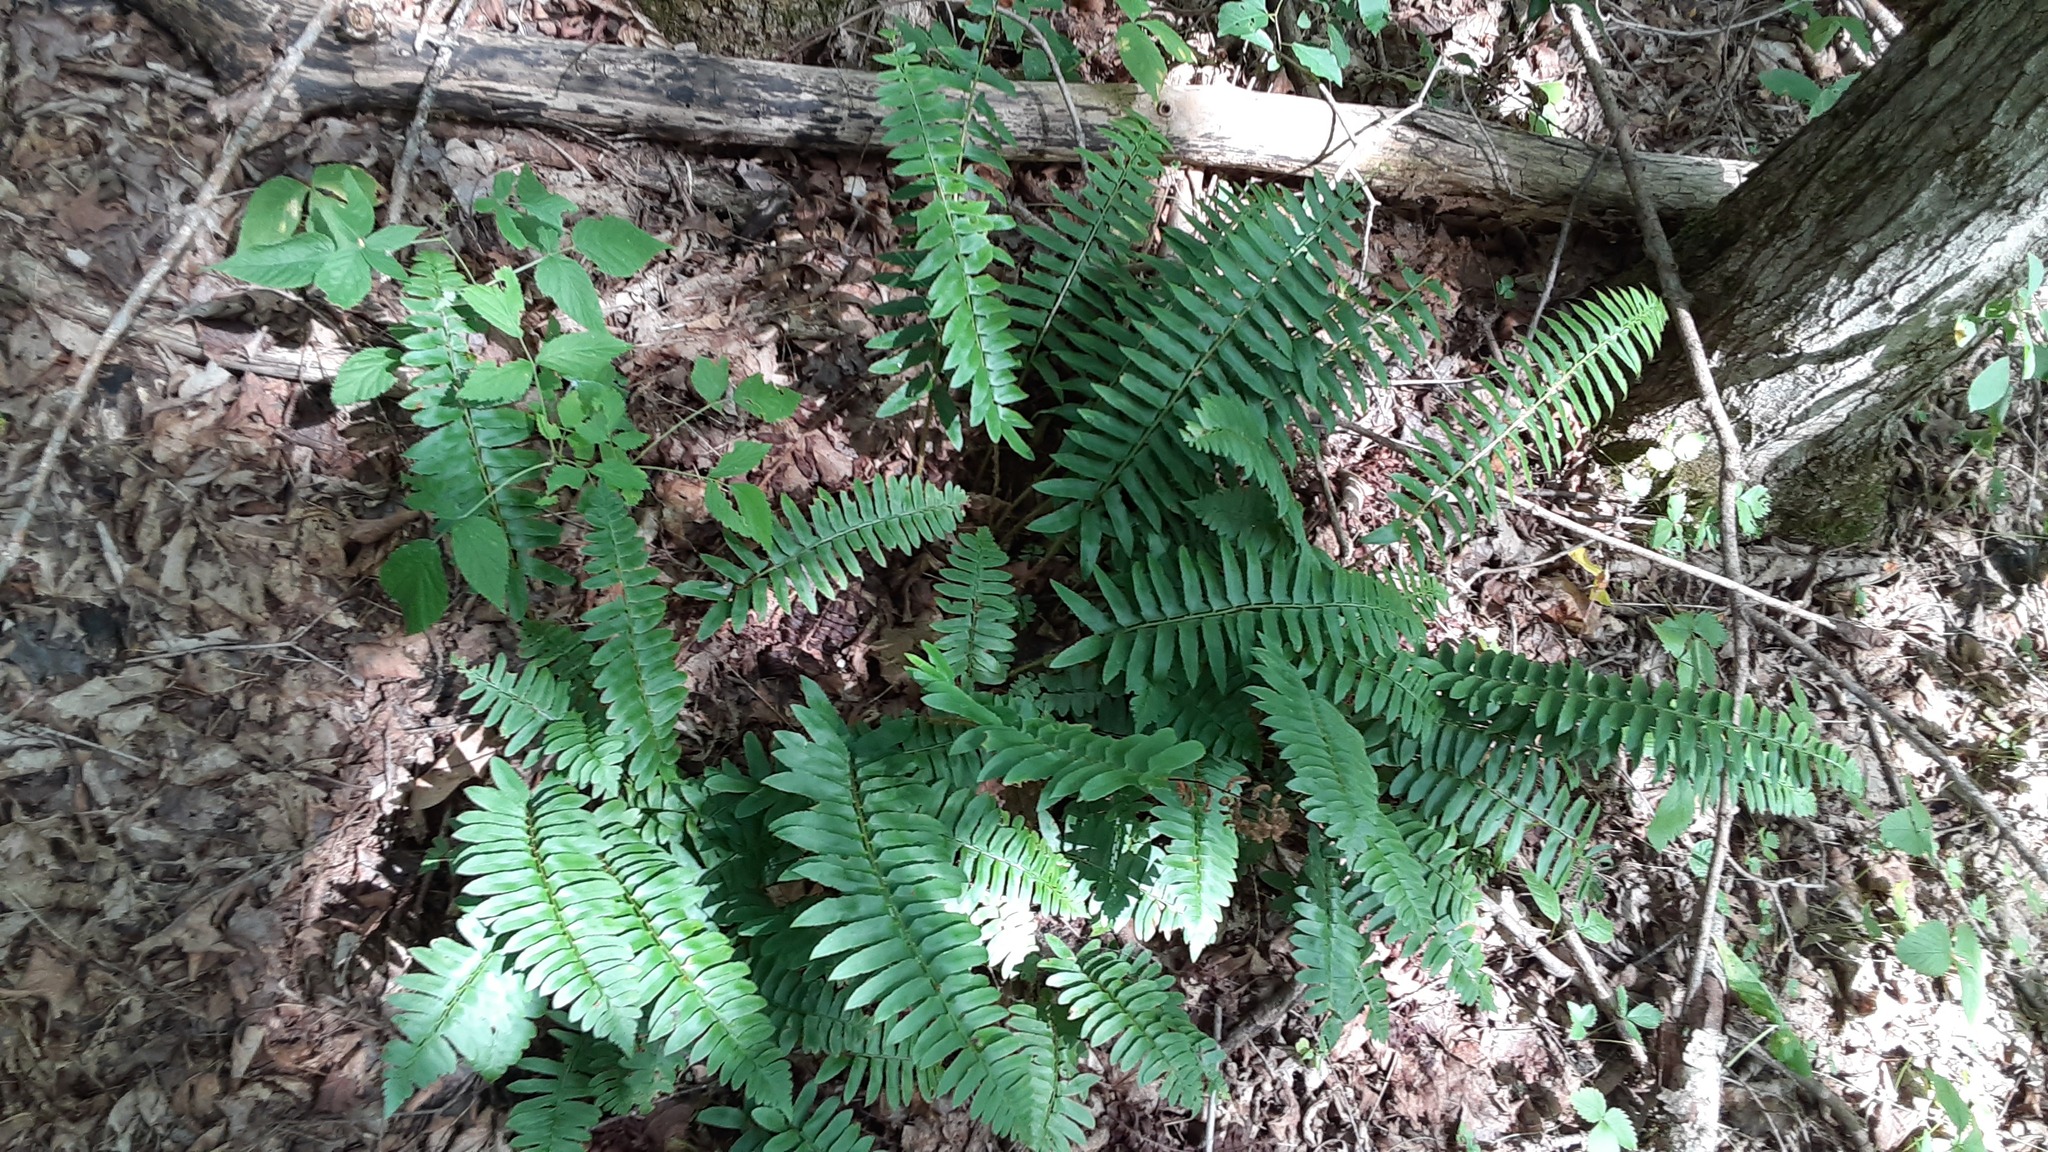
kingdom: Plantae
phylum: Tracheophyta
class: Polypodiopsida
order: Polypodiales
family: Dryopteridaceae
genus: Polystichum
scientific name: Polystichum acrostichoides
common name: Christmas fern
